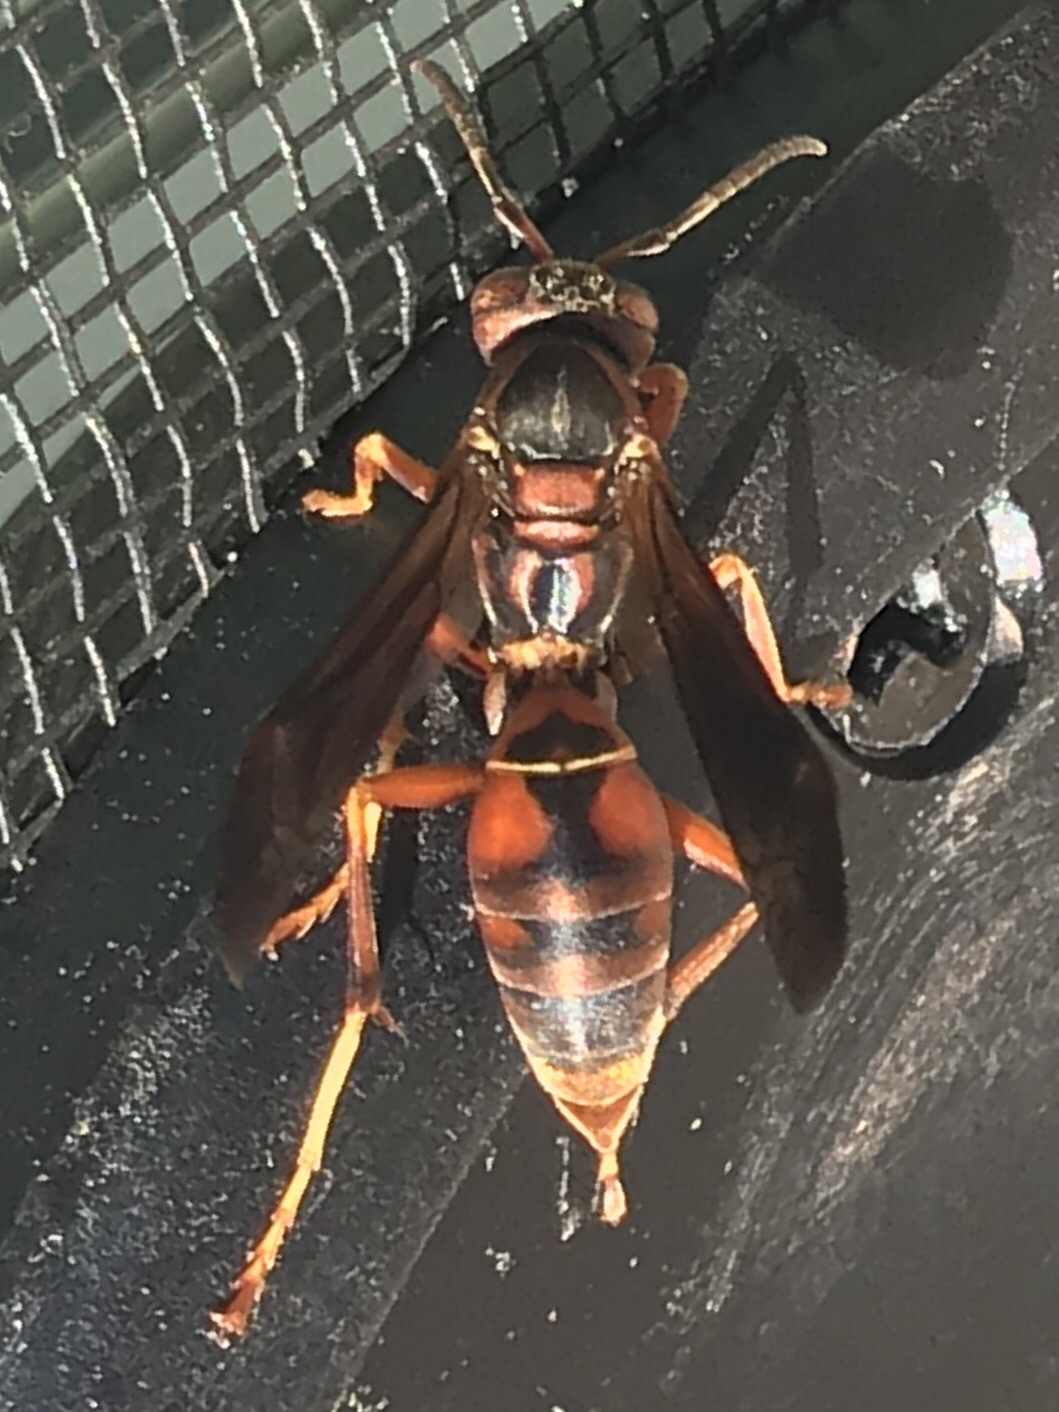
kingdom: Animalia
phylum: Arthropoda
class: Insecta
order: Hymenoptera
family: Eumenidae
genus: Polistes
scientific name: Polistes fuscatus
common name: Dark paper wasp
